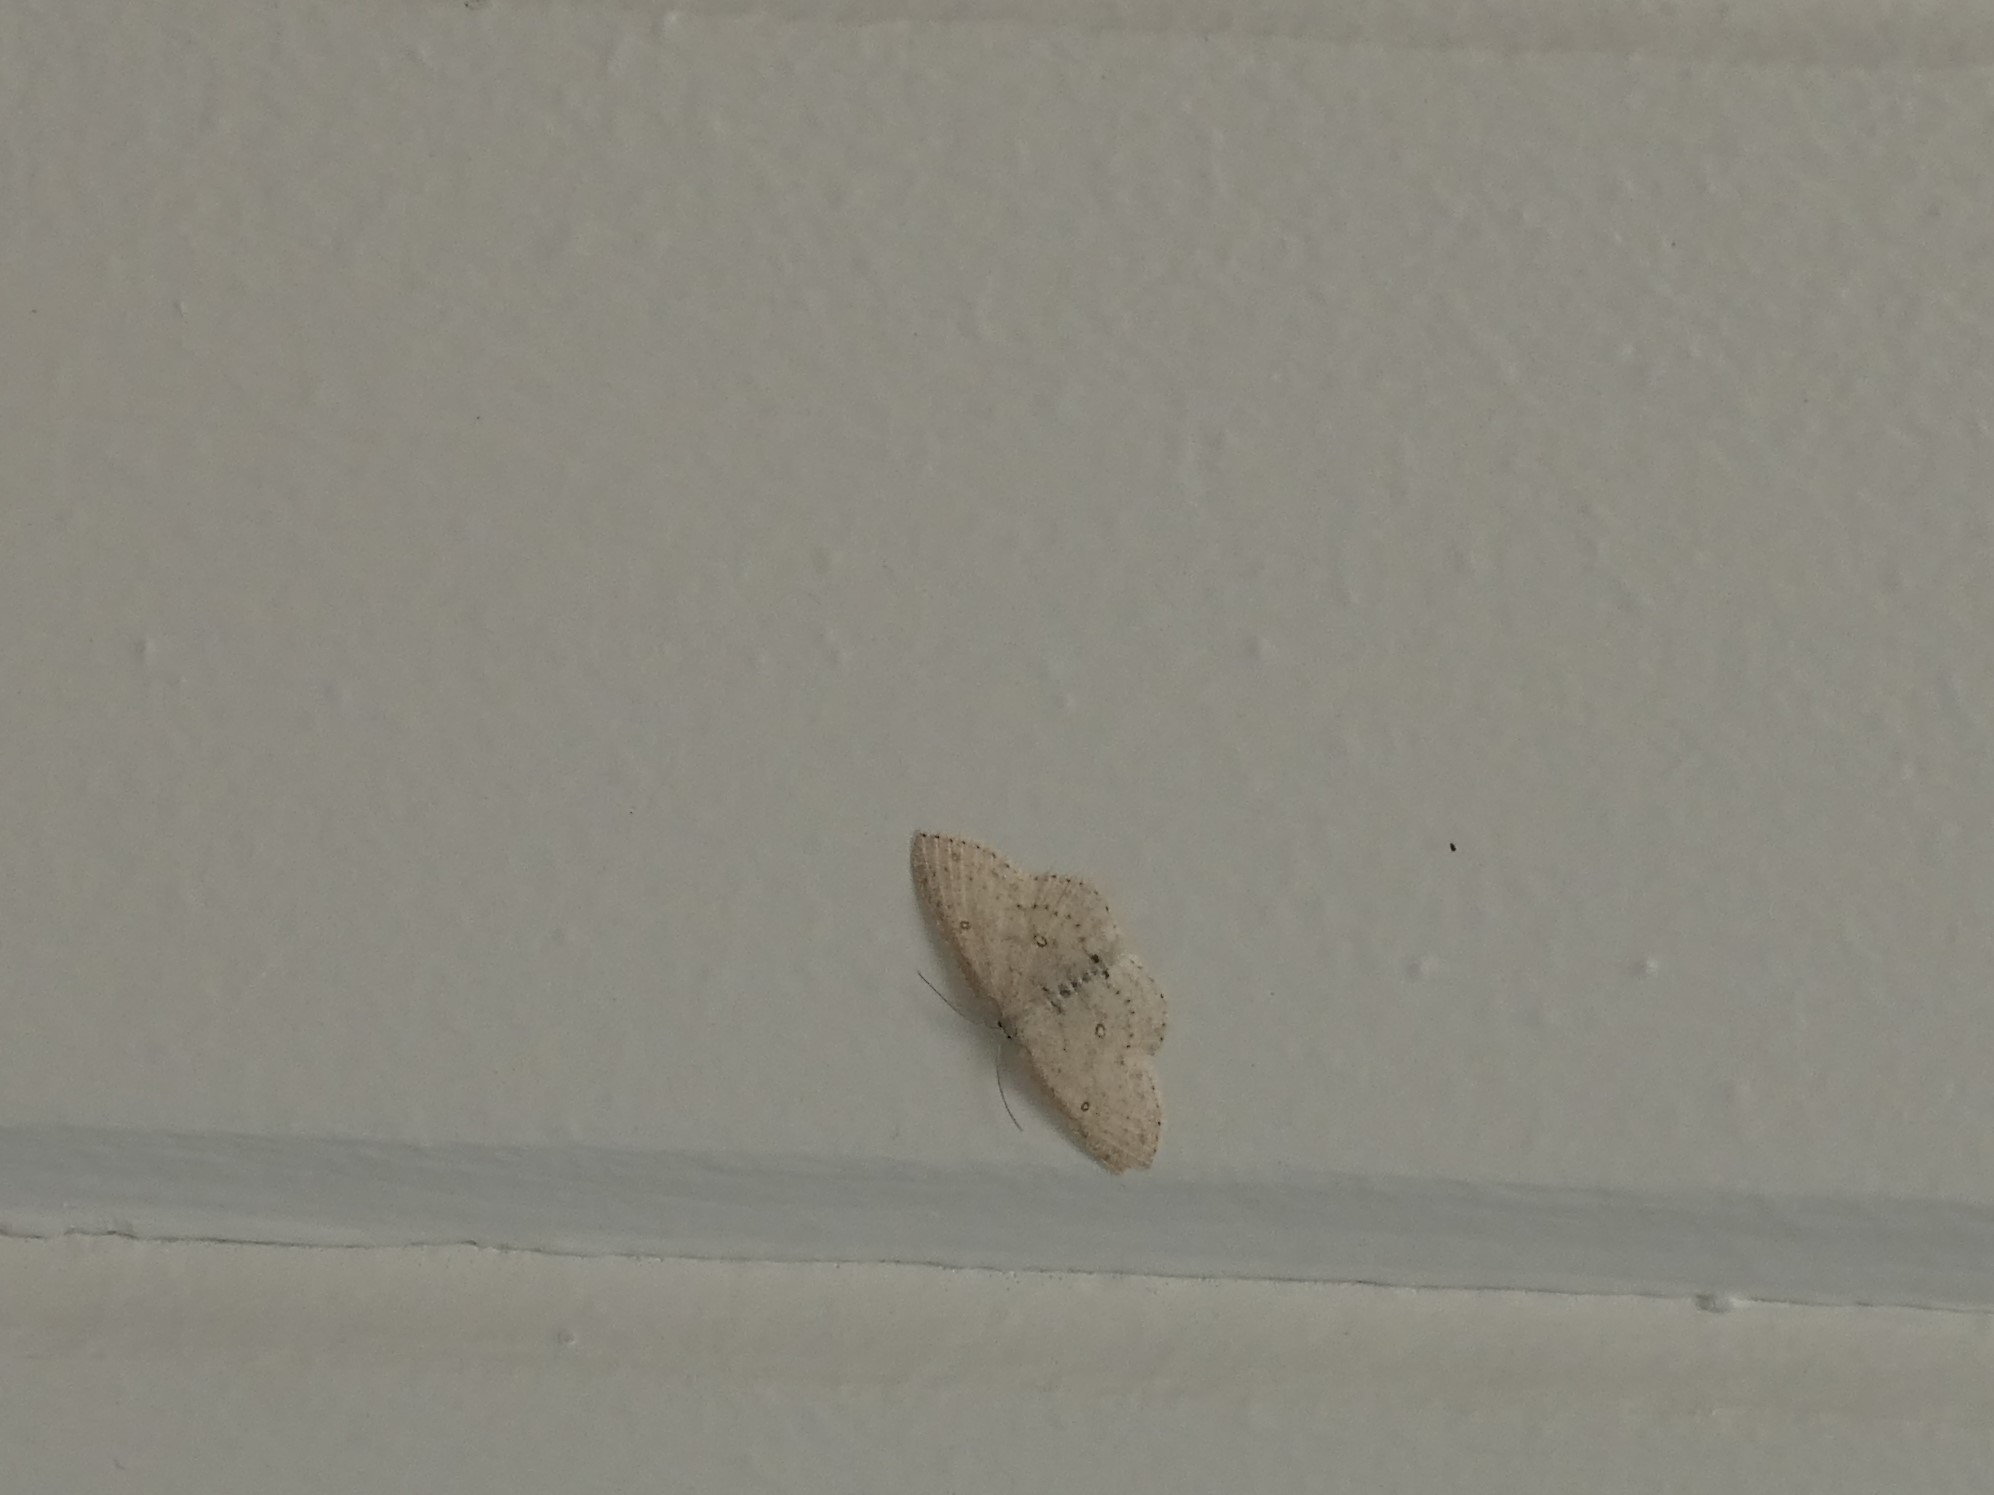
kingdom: Animalia
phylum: Arthropoda
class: Insecta
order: Lepidoptera
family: Geometridae
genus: Cyclophora
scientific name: Cyclophora pendulinaria
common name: Sweet fern geometer
